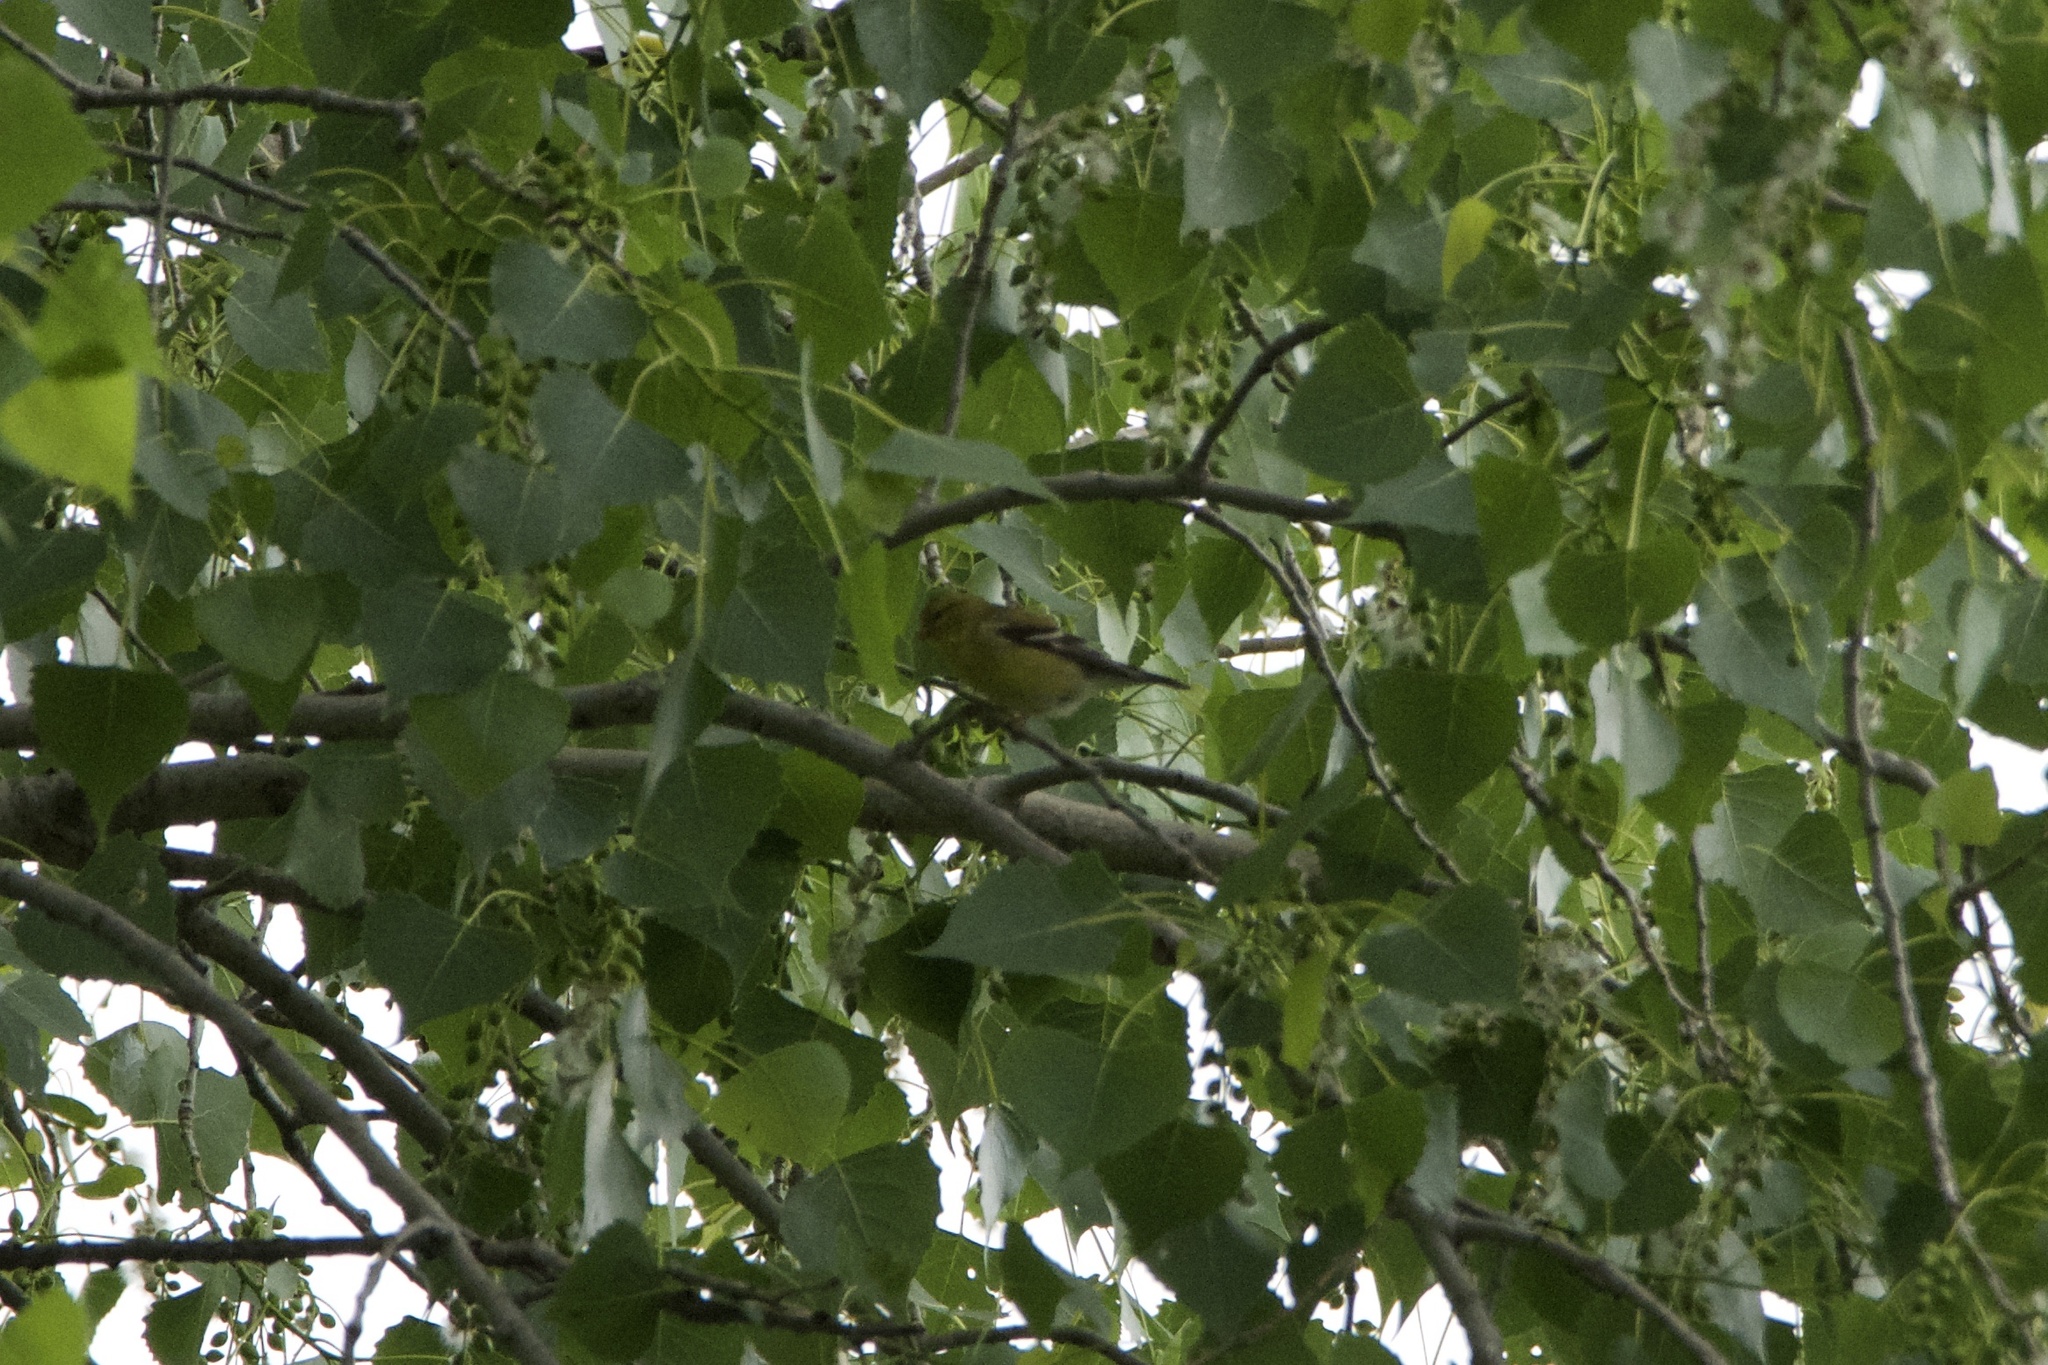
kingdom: Animalia
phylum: Chordata
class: Aves
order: Passeriformes
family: Fringillidae
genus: Spinus
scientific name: Spinus tristis
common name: American goldfinch
